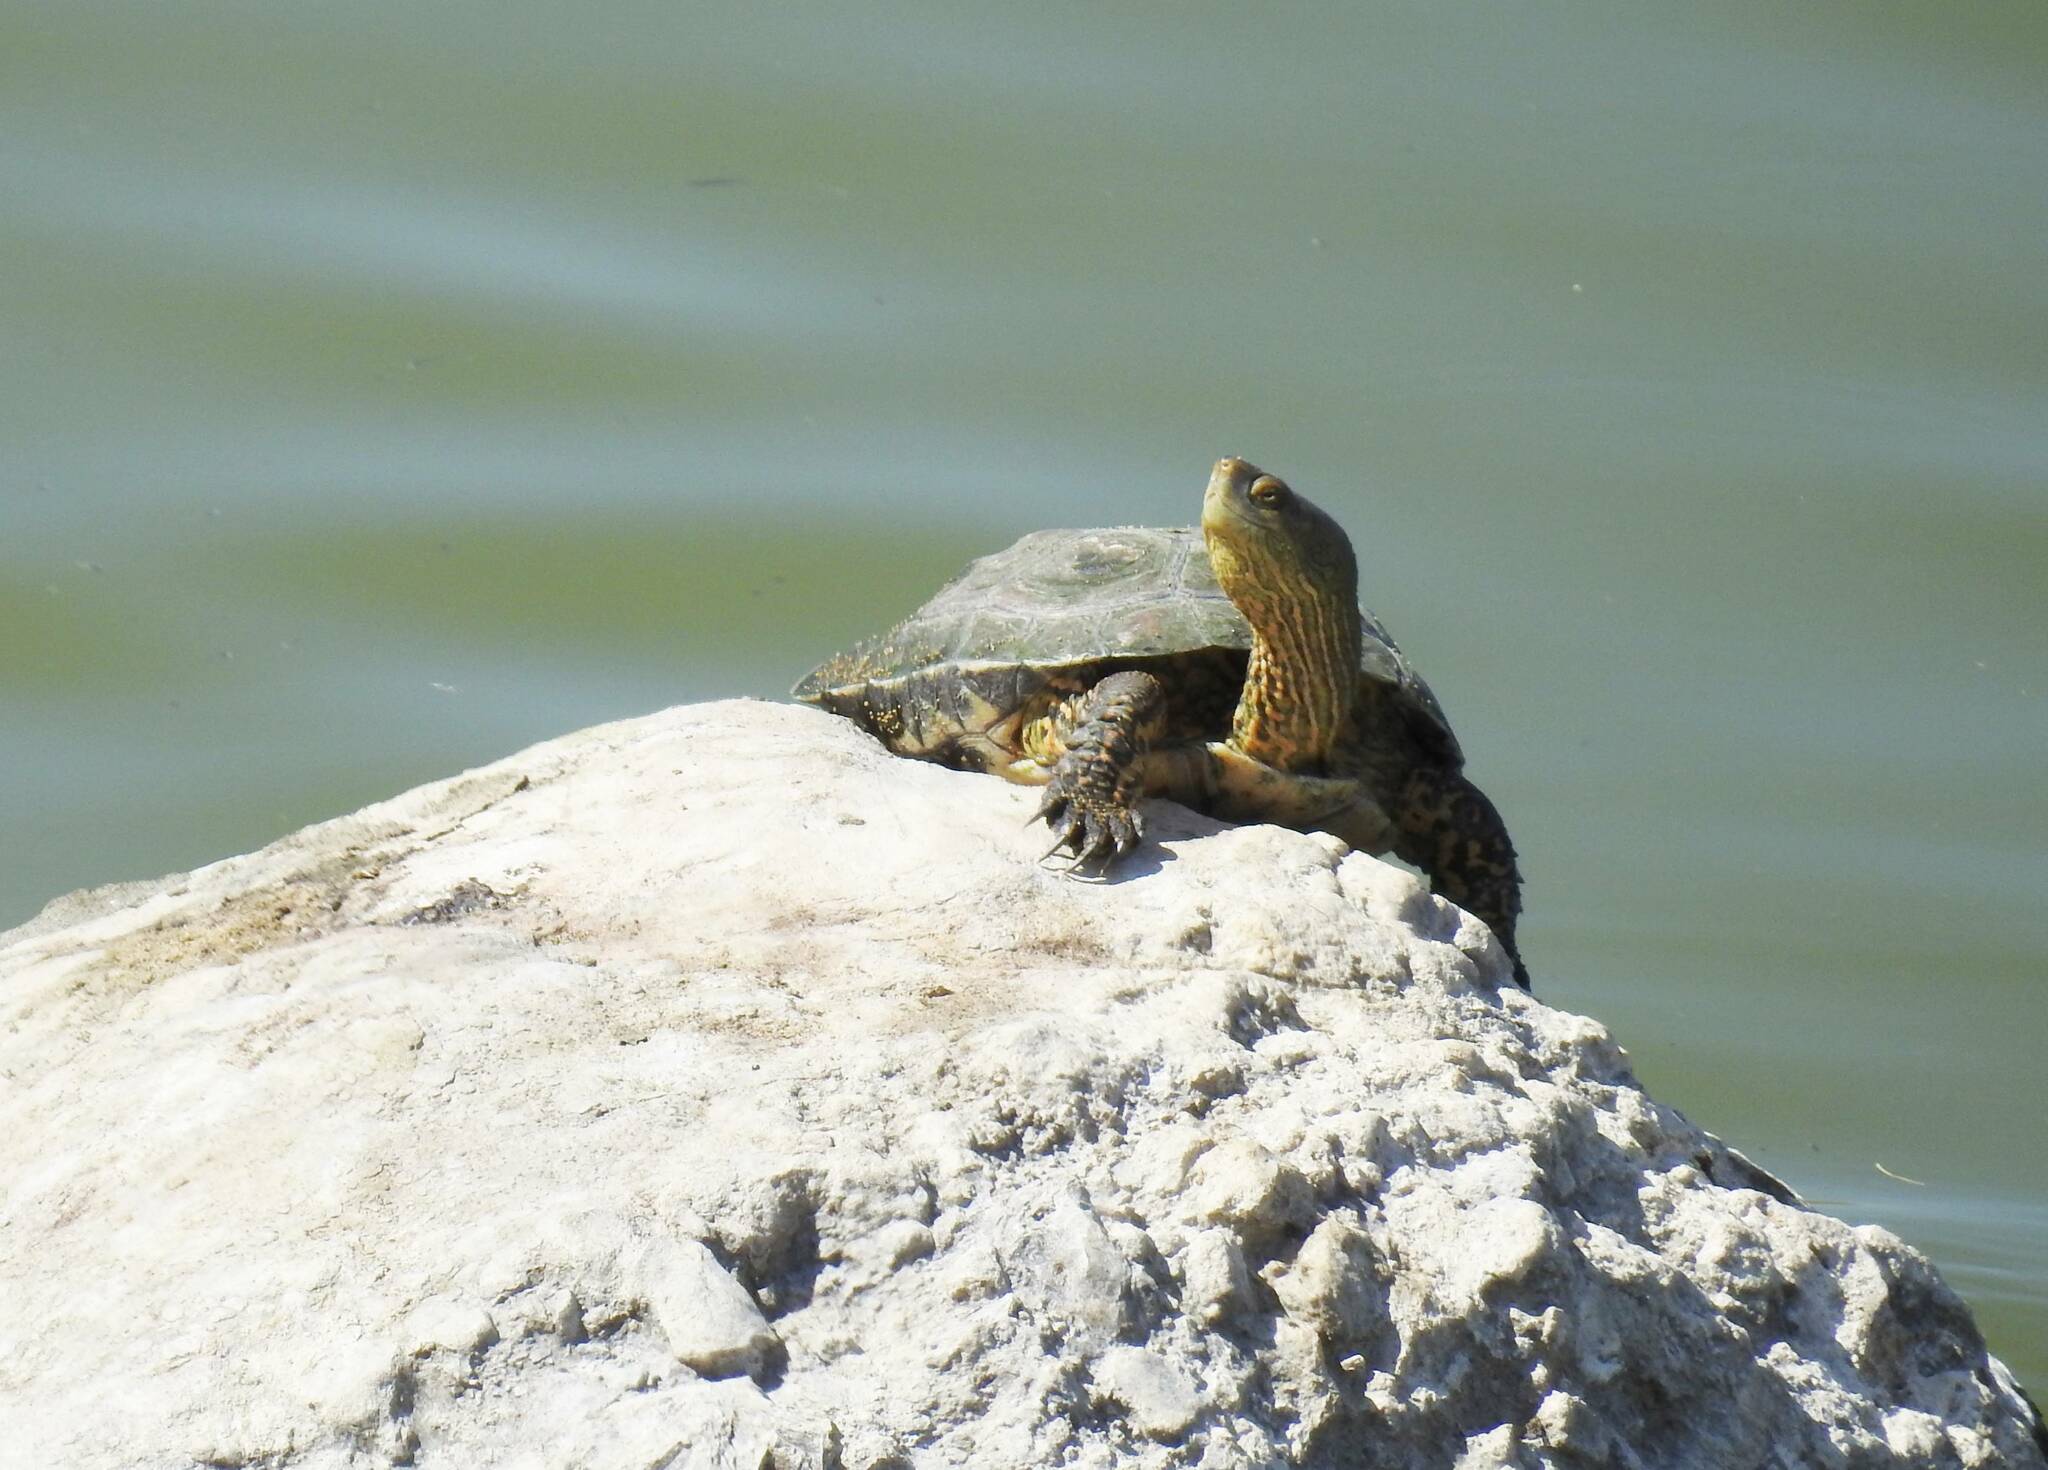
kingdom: Animalia
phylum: Chordata
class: Testudines
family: Geoemydidae
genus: Mauremys
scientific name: Mauremys leprosa
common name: Mediterranean pond turtle
